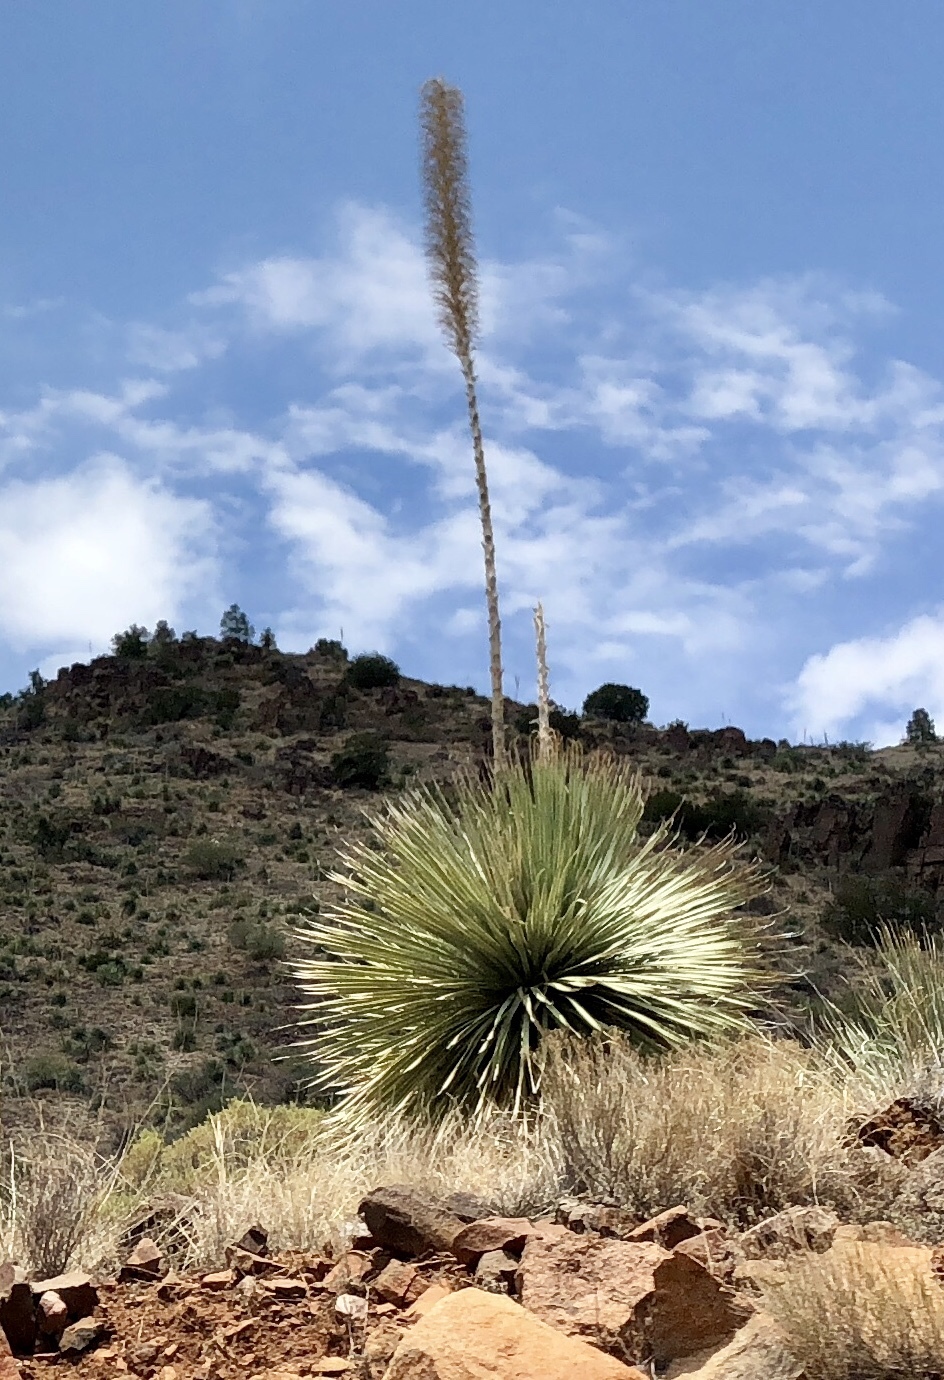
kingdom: Plantae
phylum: Tracheophyta
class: Liliopsida
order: Asparagales
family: Asparagaceae
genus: Dasylirion
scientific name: Dasylirion wheeleri
